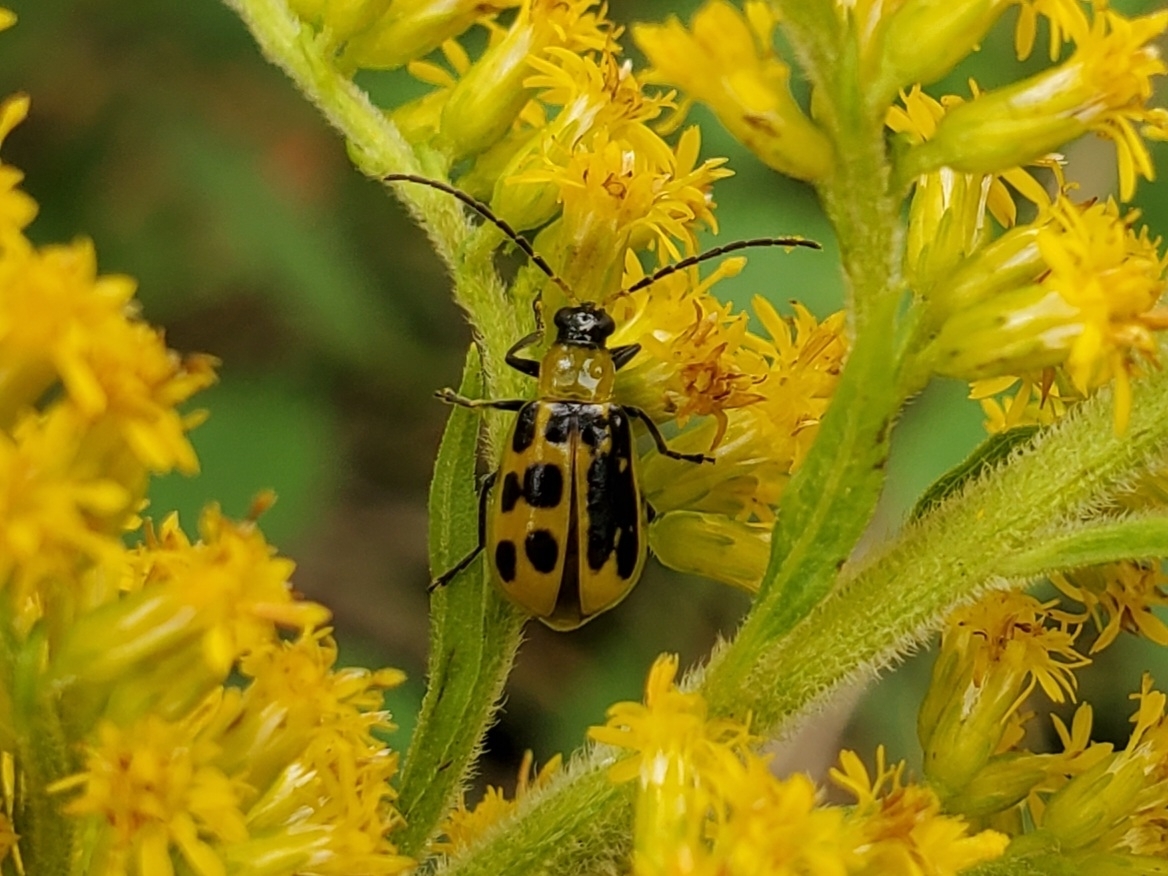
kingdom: Animalia
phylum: Arthropoda
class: Insecta
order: Coleoptera
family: Chrysomelidae
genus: Diabrotica
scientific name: Diabrotica undecimpunctata
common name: Spotted cucumber beetle
